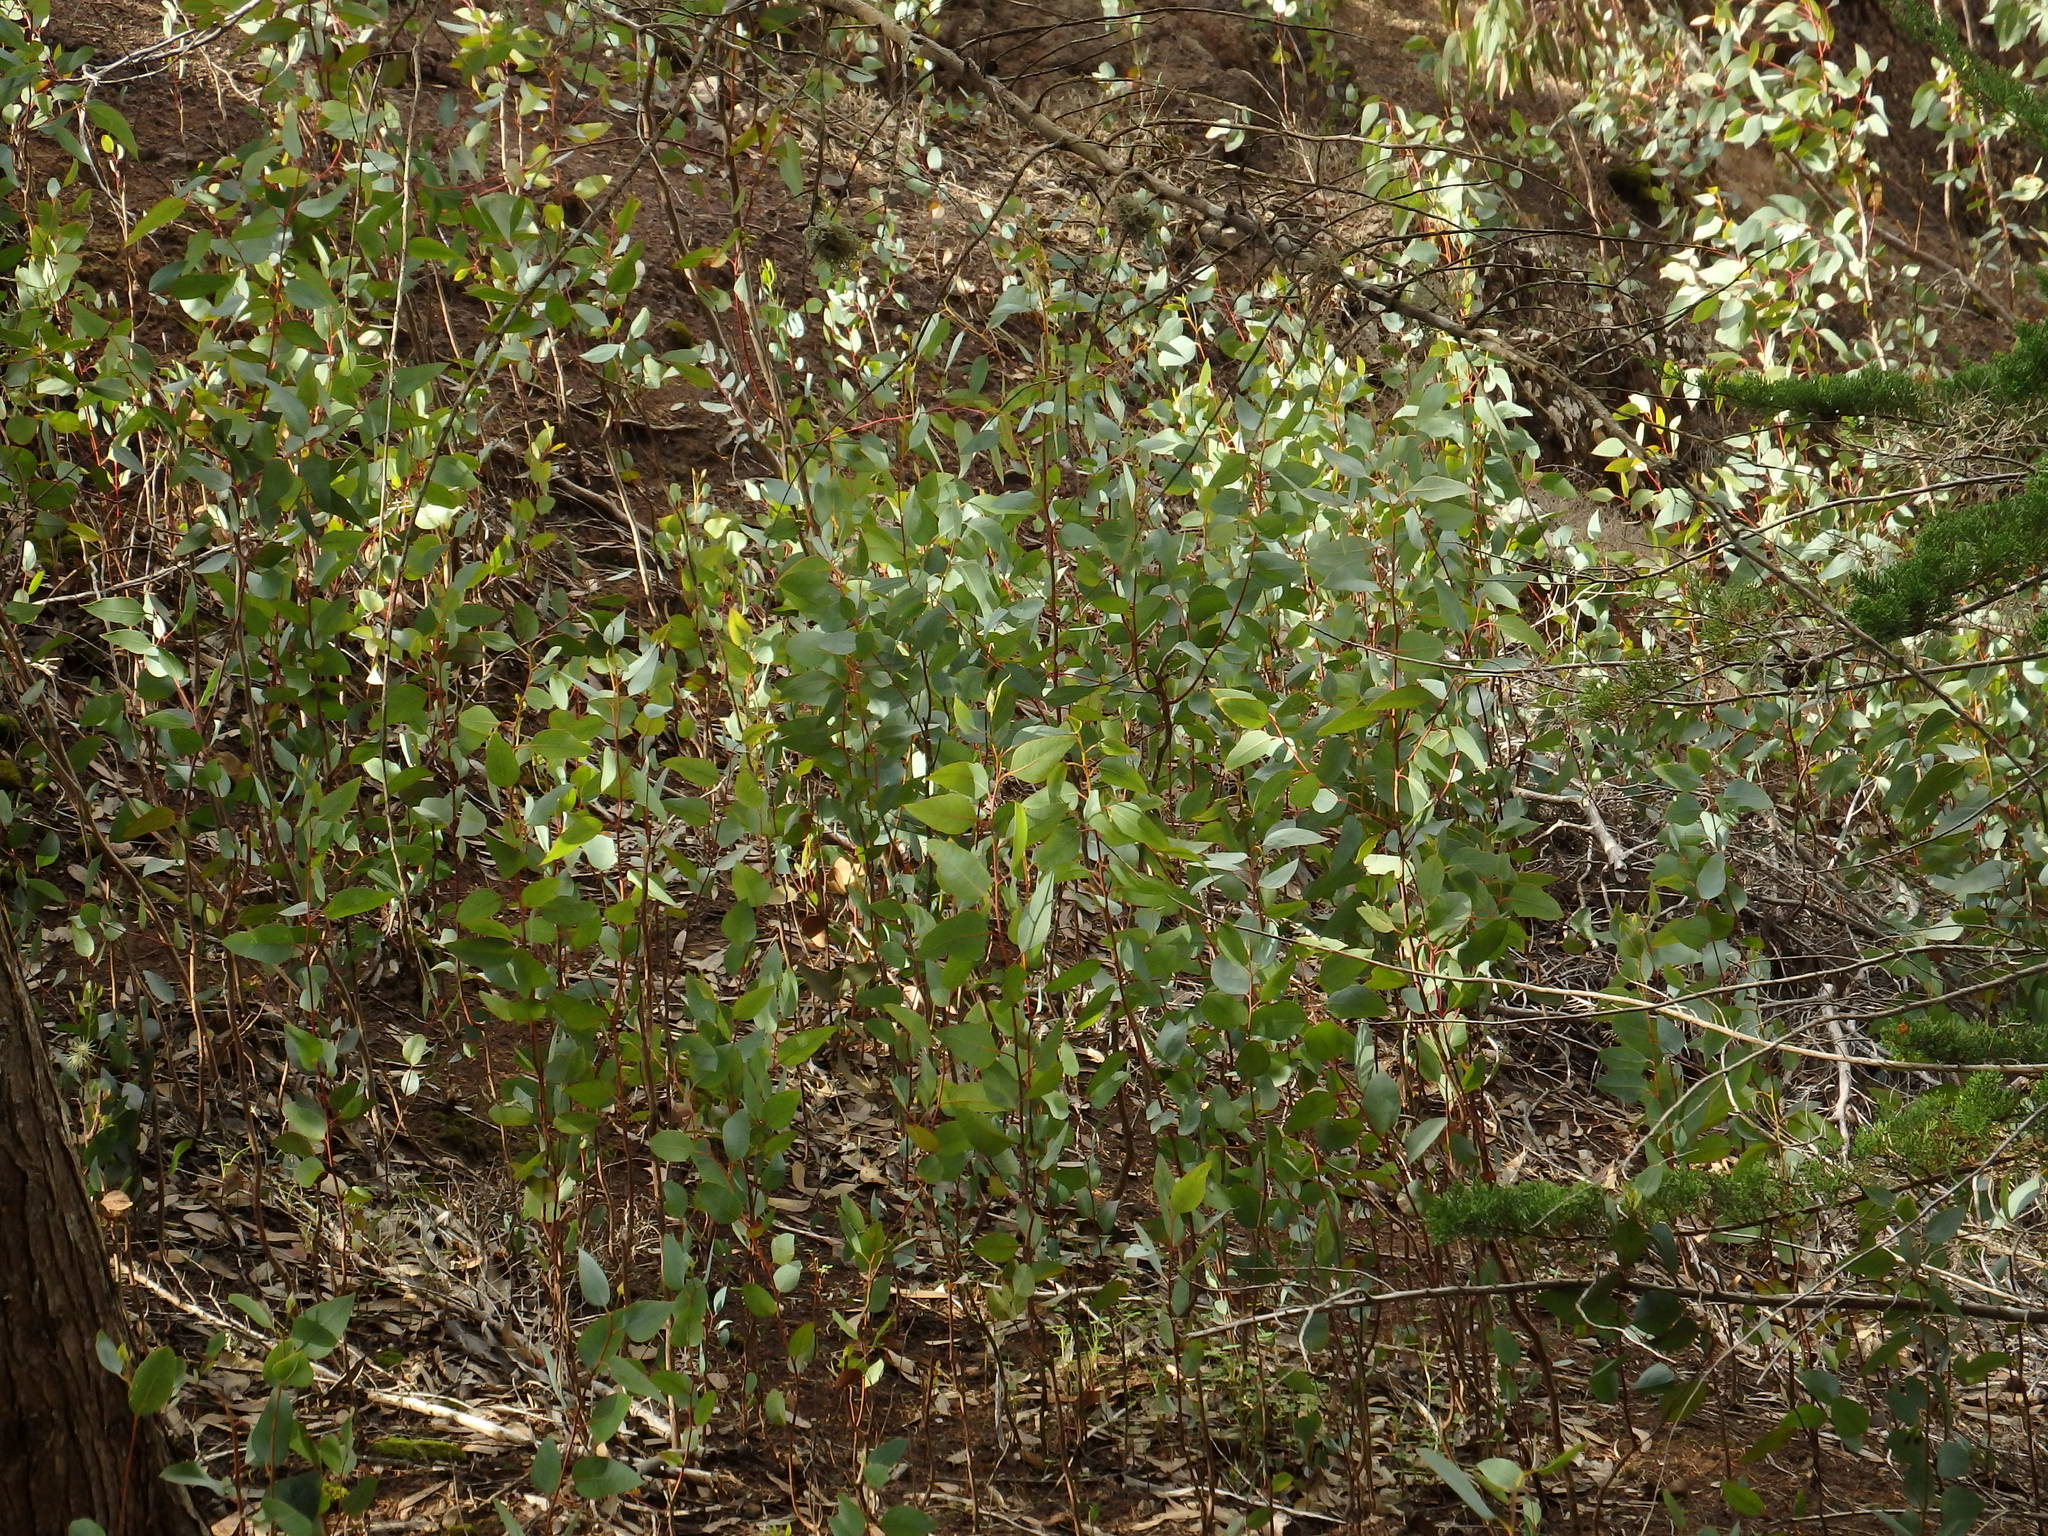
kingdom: Plantae
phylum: Tracheophyta
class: Magnoliopsida
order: Myrtales
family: Myrtaceae
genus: Eucalyptus
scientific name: Eucalyptus robusta
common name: Swampmahogany
